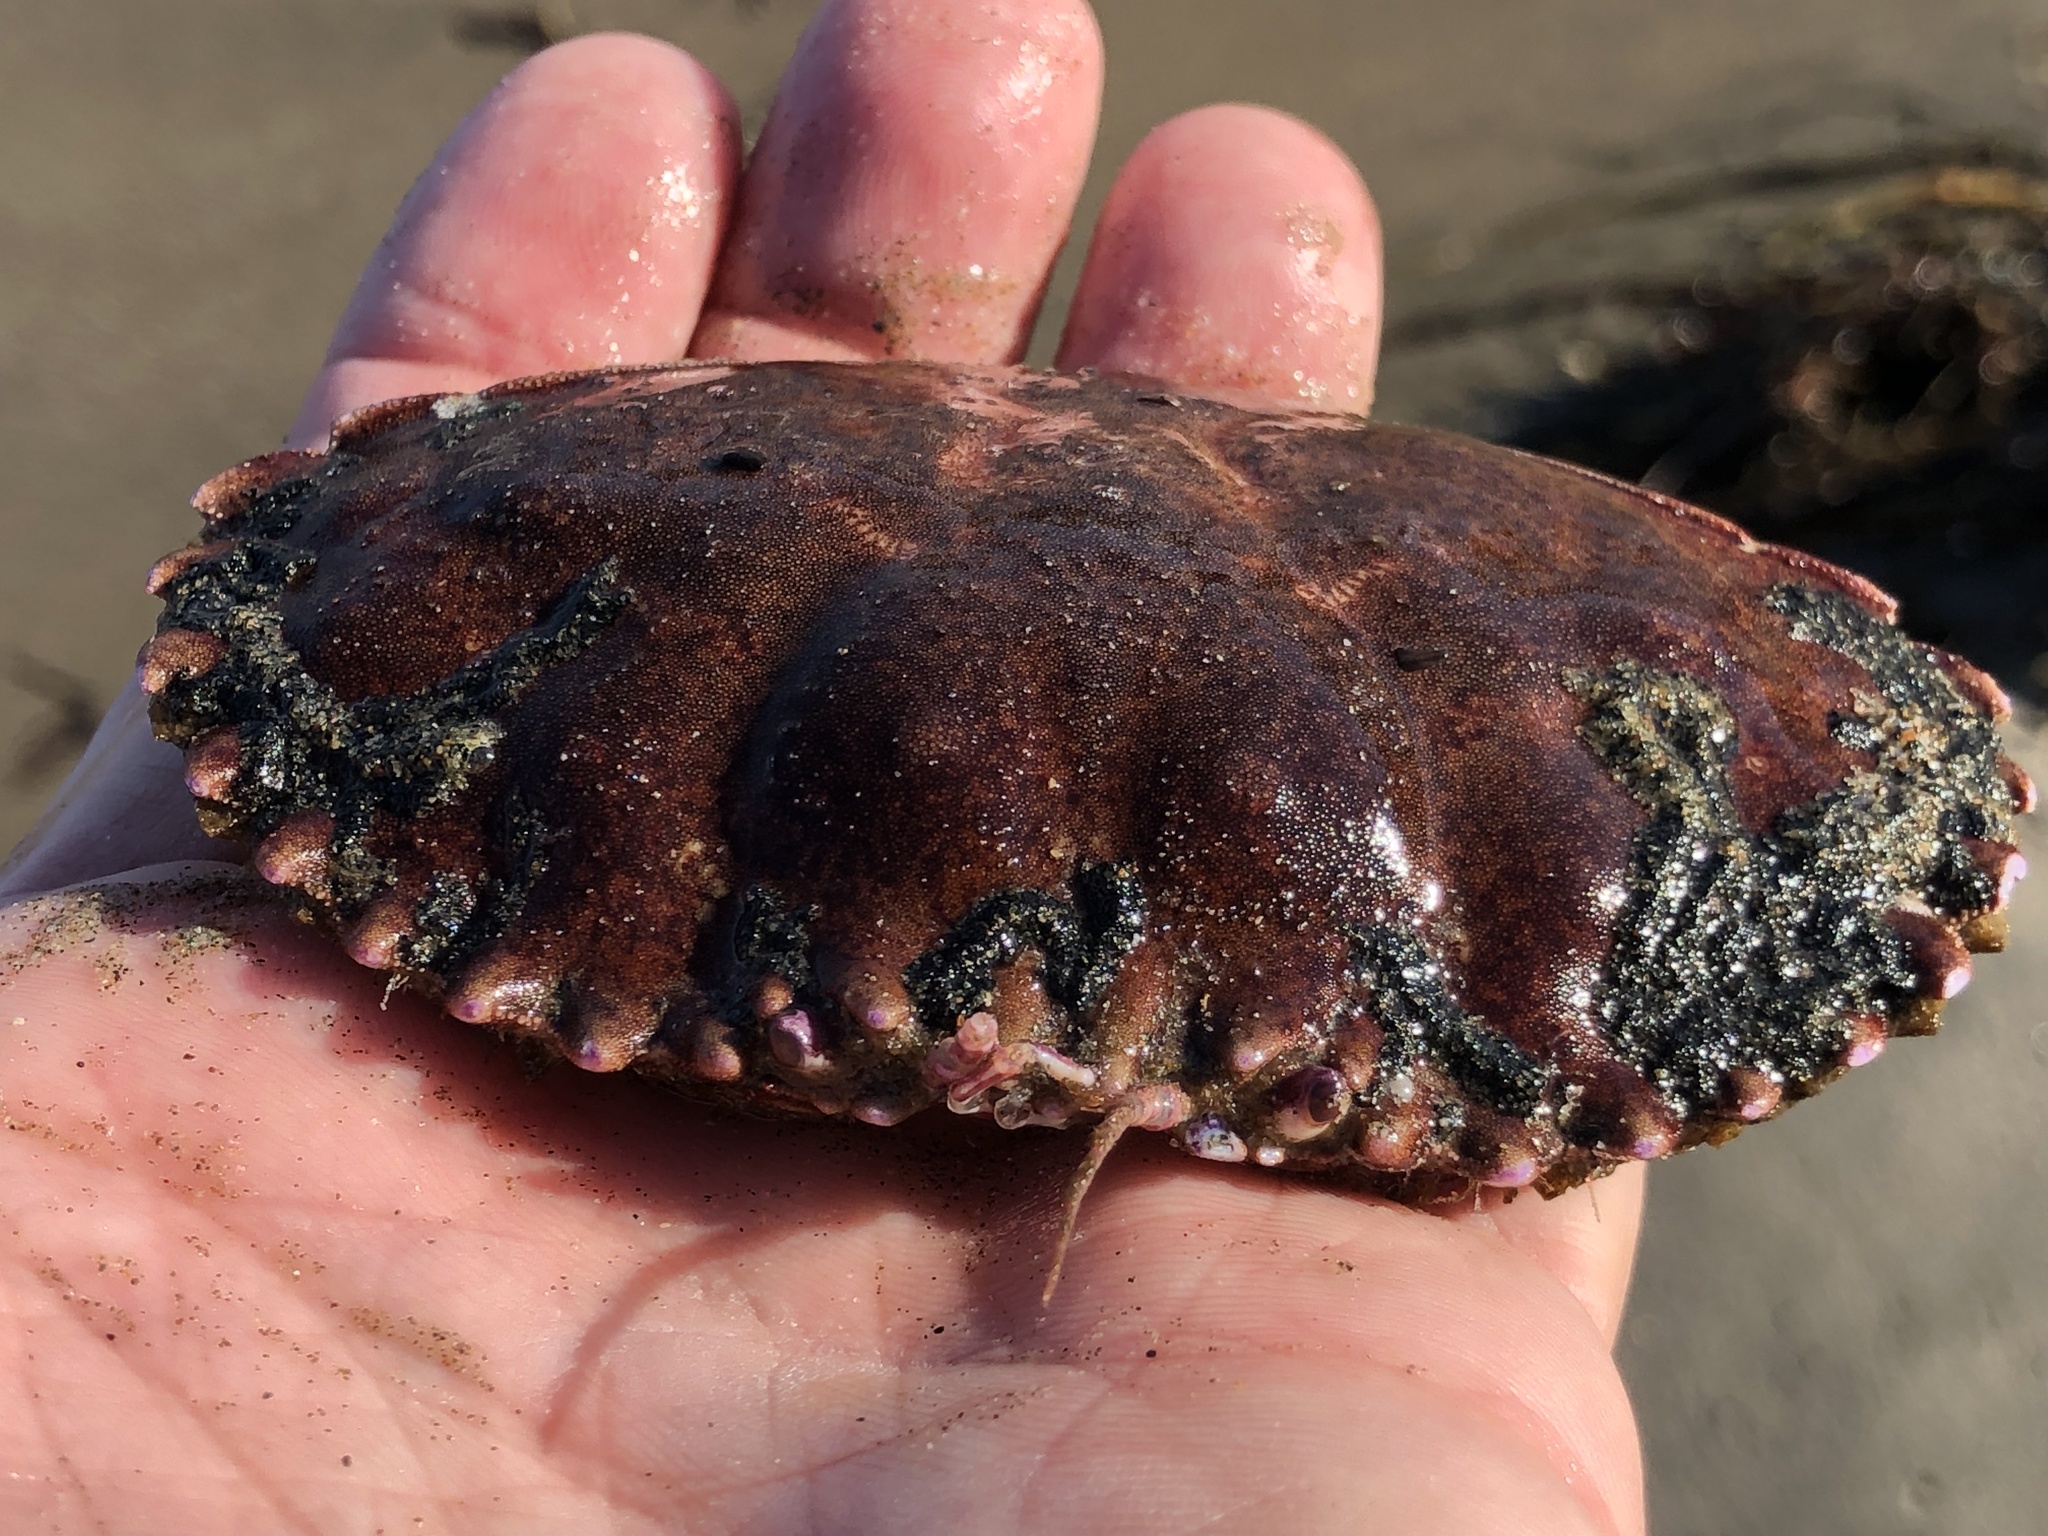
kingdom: Animalia
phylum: Arthropoda
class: Malacostraca
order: Decapoda
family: Cancridae
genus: Romaleon
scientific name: Romaleon antennarium
